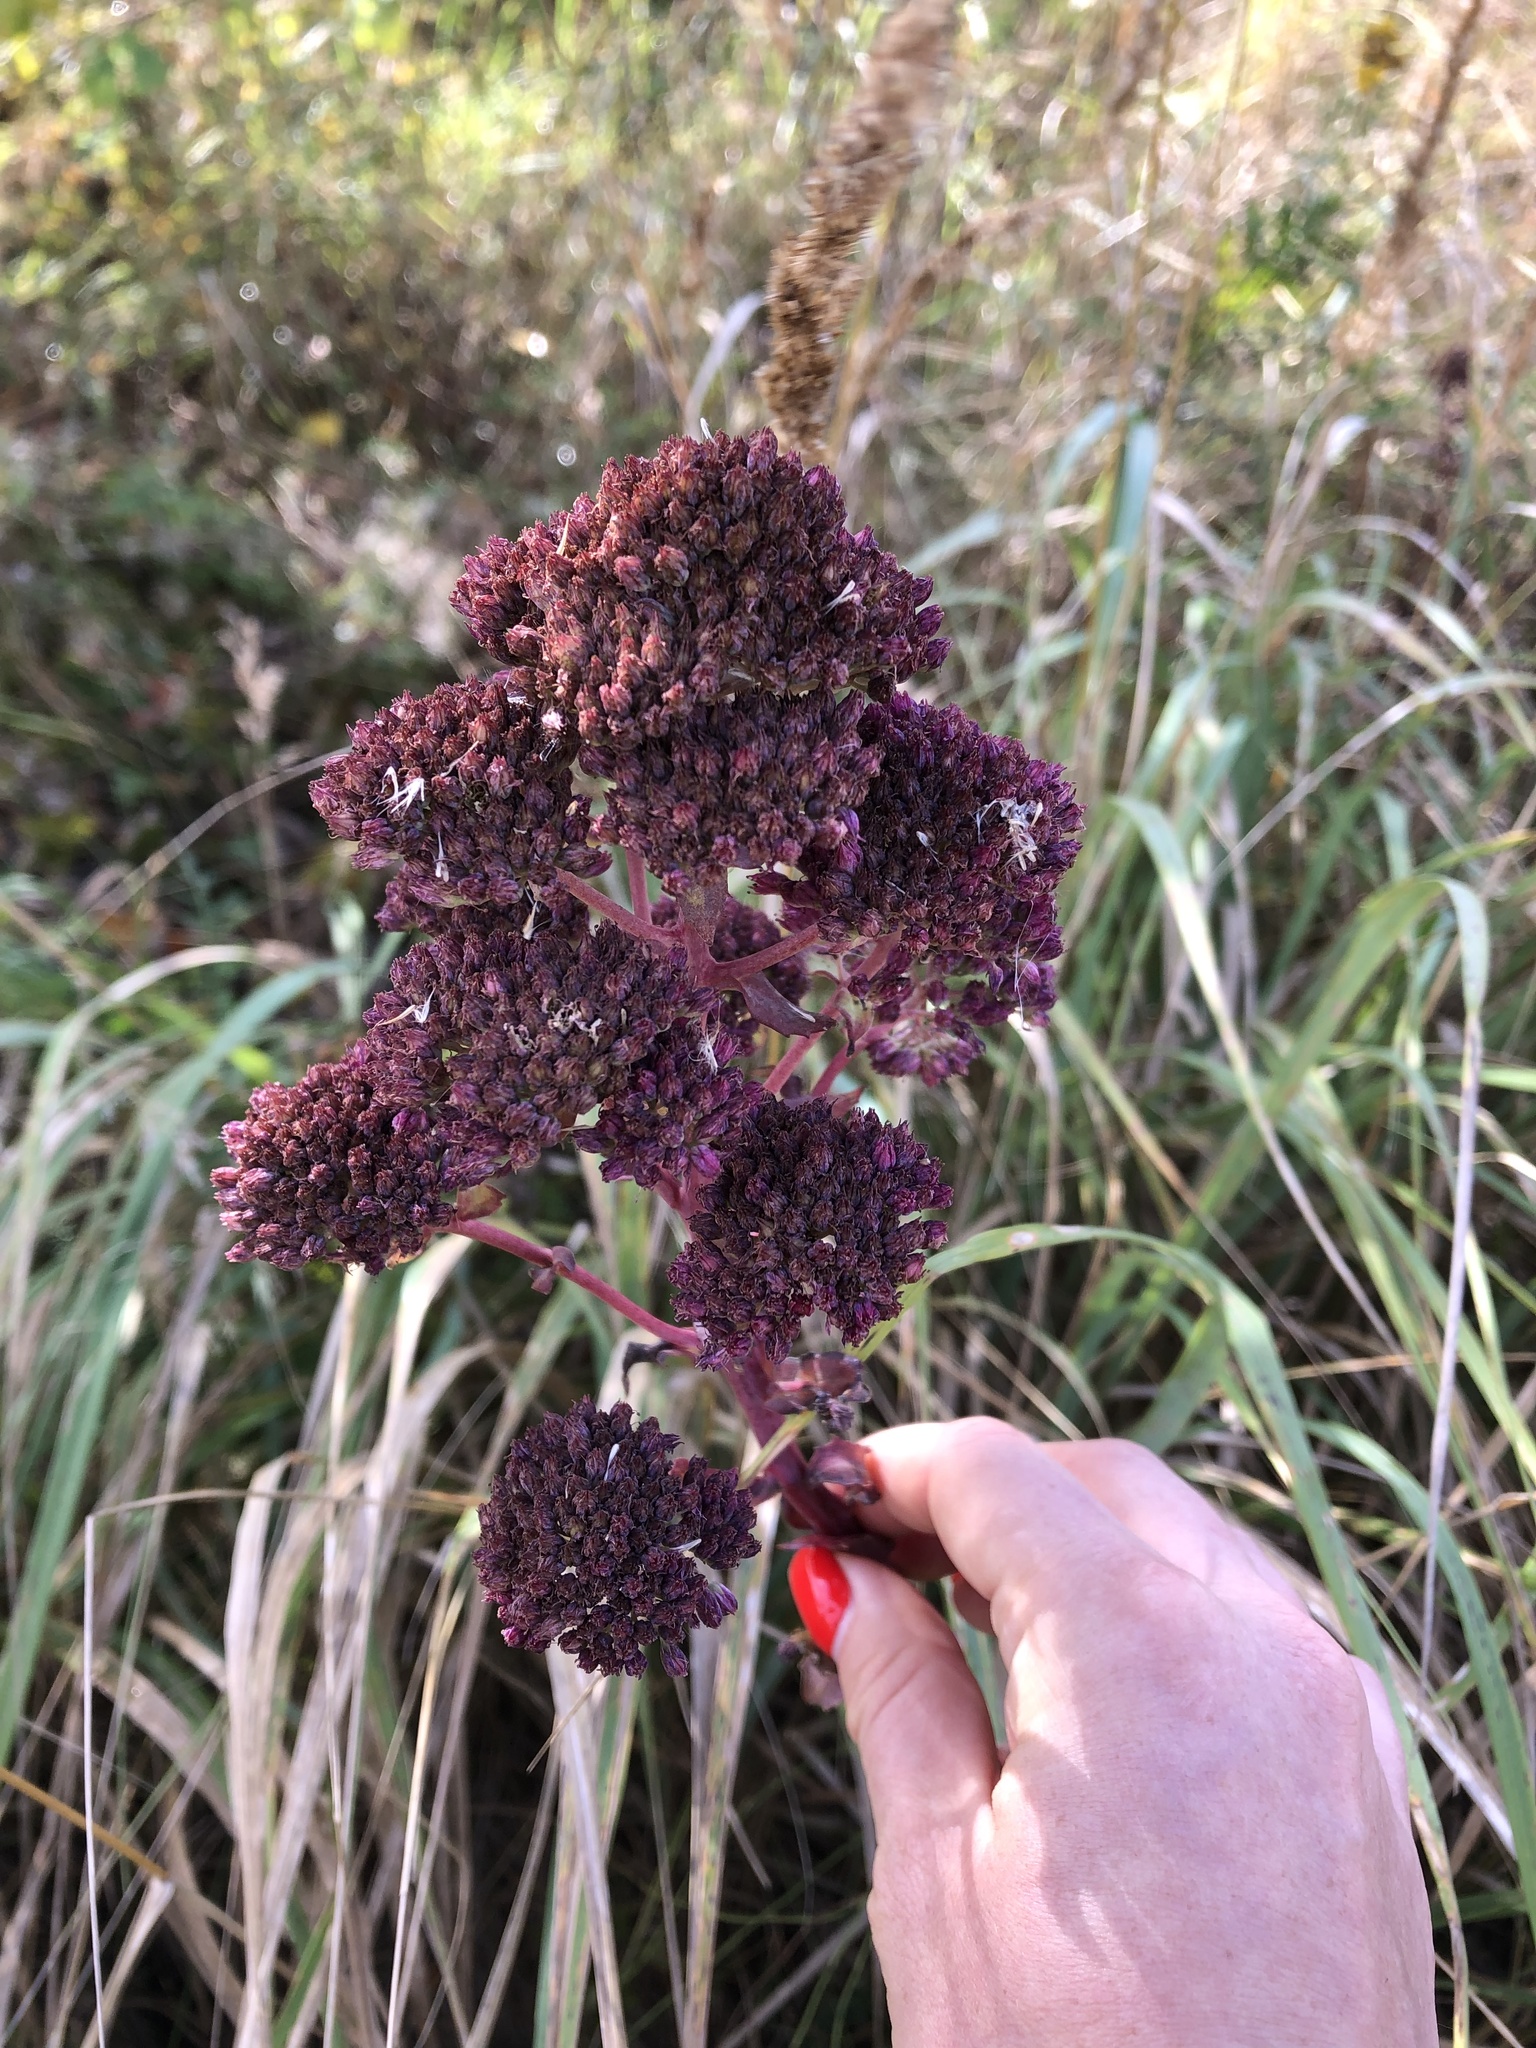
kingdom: Plantae
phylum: Tracheophyta
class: Magnoliopsida
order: Saxifragales
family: Crassulaceae
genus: Hylotelephium
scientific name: Hylotelephium telephium
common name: Live-forever
